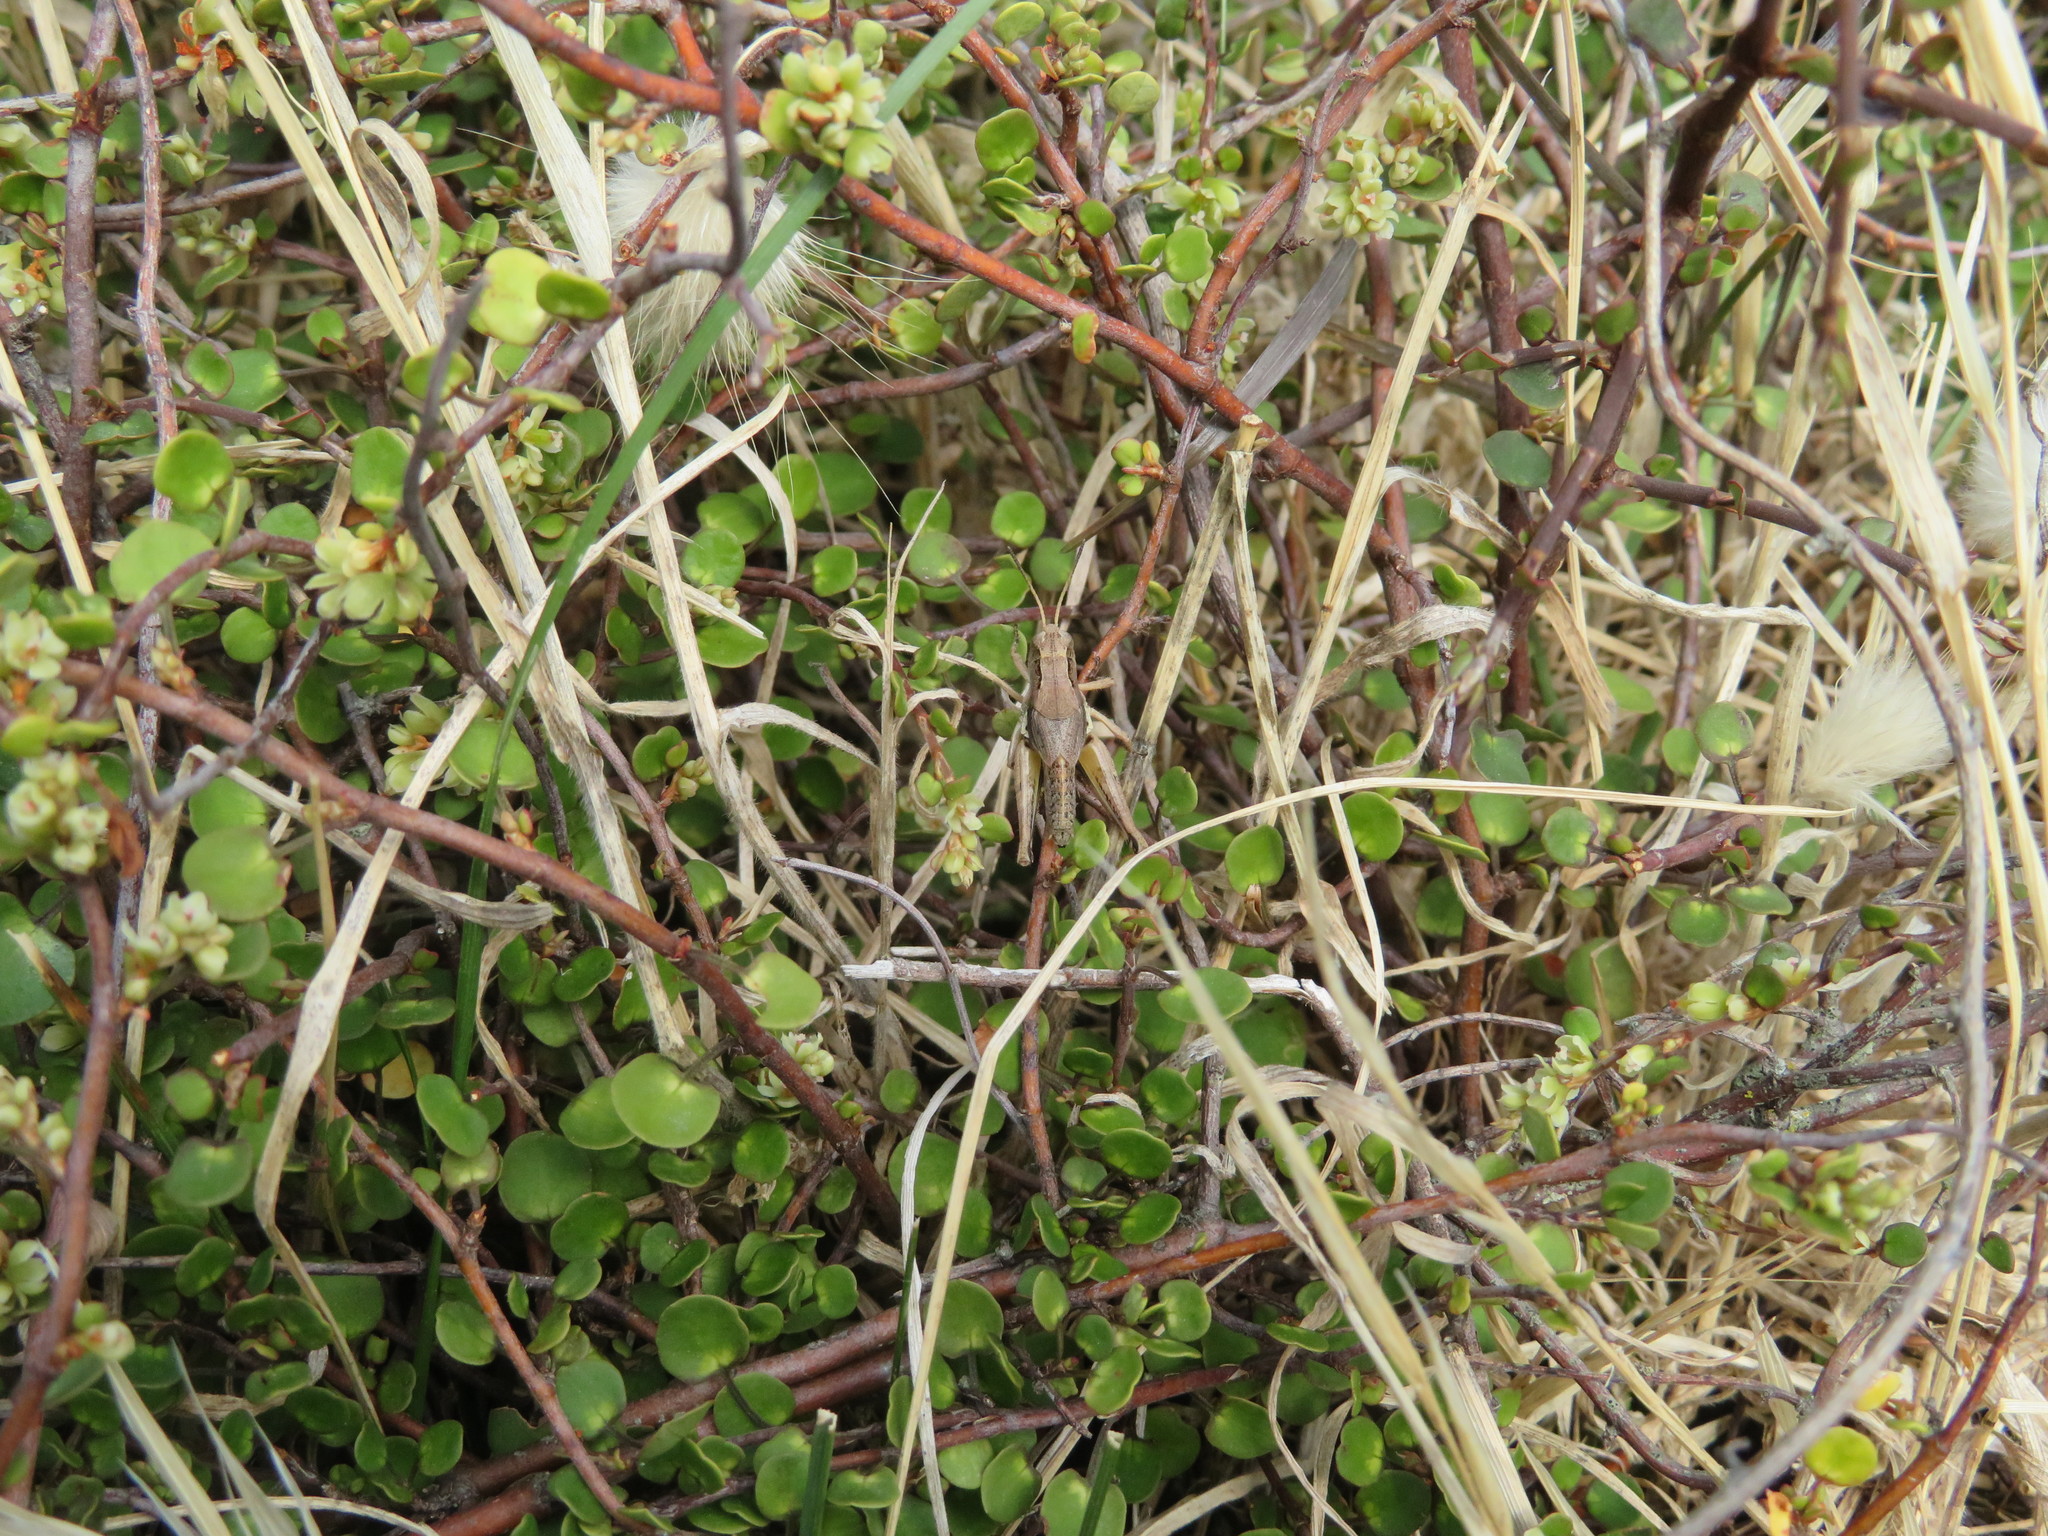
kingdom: Animalia
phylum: Arthropoda
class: Insecta
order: Orthoptera
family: Acrididae
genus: Phaulacridium
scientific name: Phaulacridium marginale
